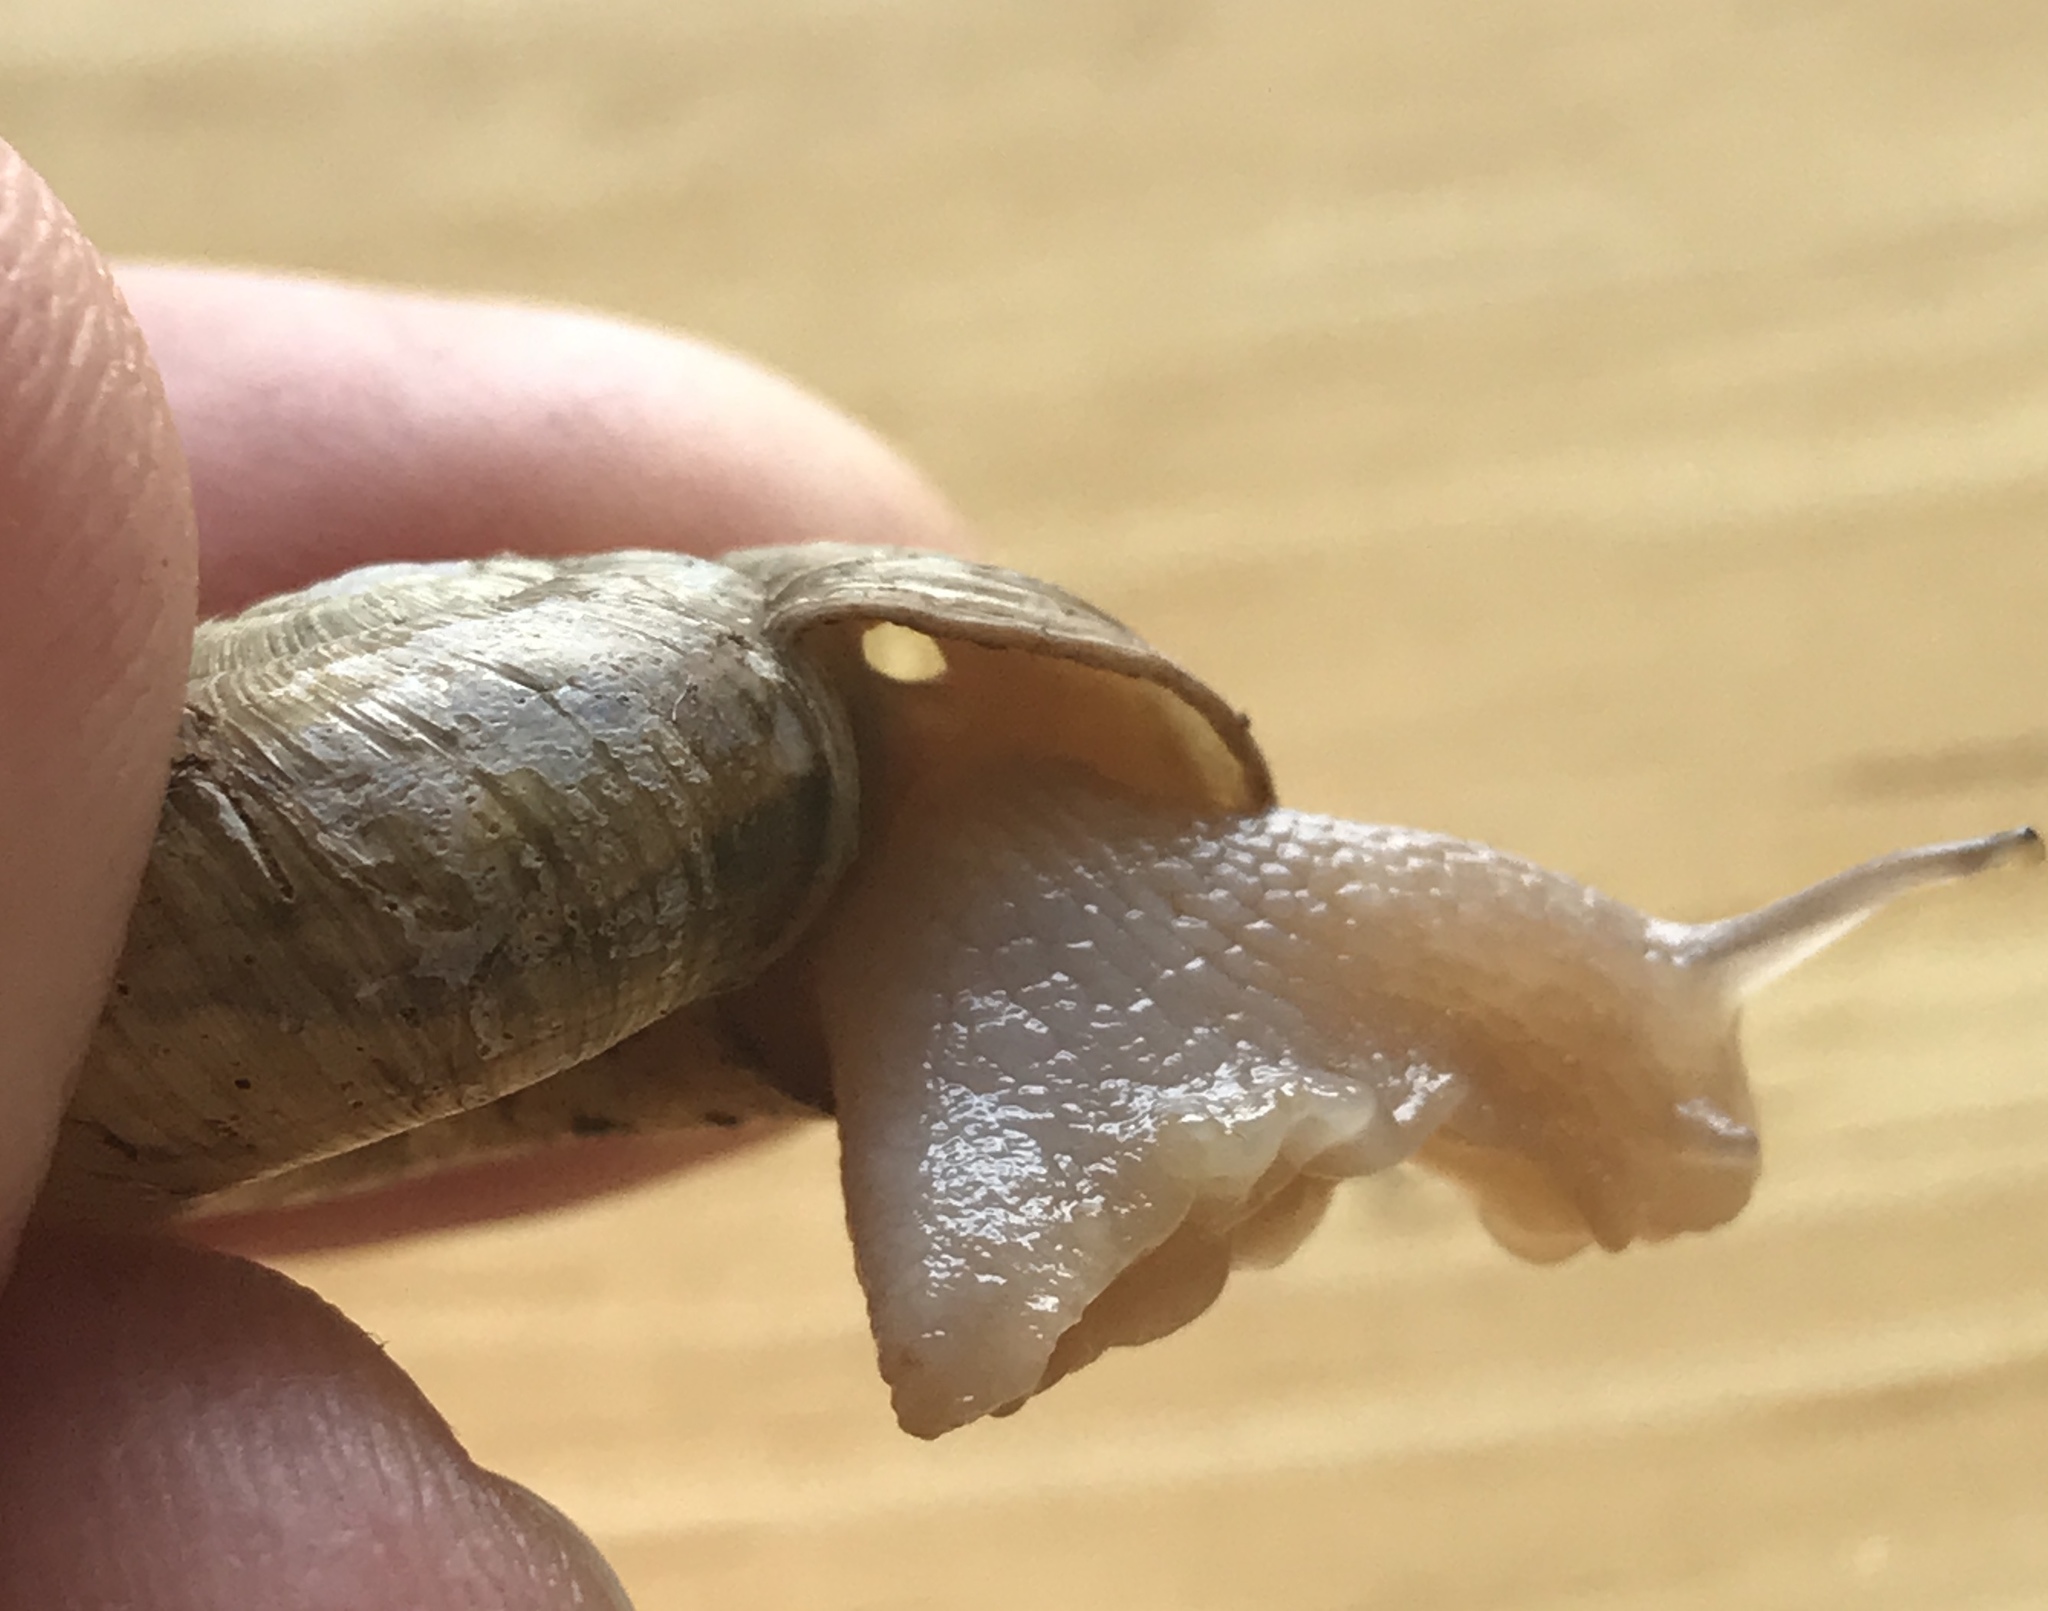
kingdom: Animalia
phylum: Mollusca
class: Gastropoda
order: Stylommatophora
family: Haplotrematidae
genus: Haplotrema
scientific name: Haplotrema vancouverense
